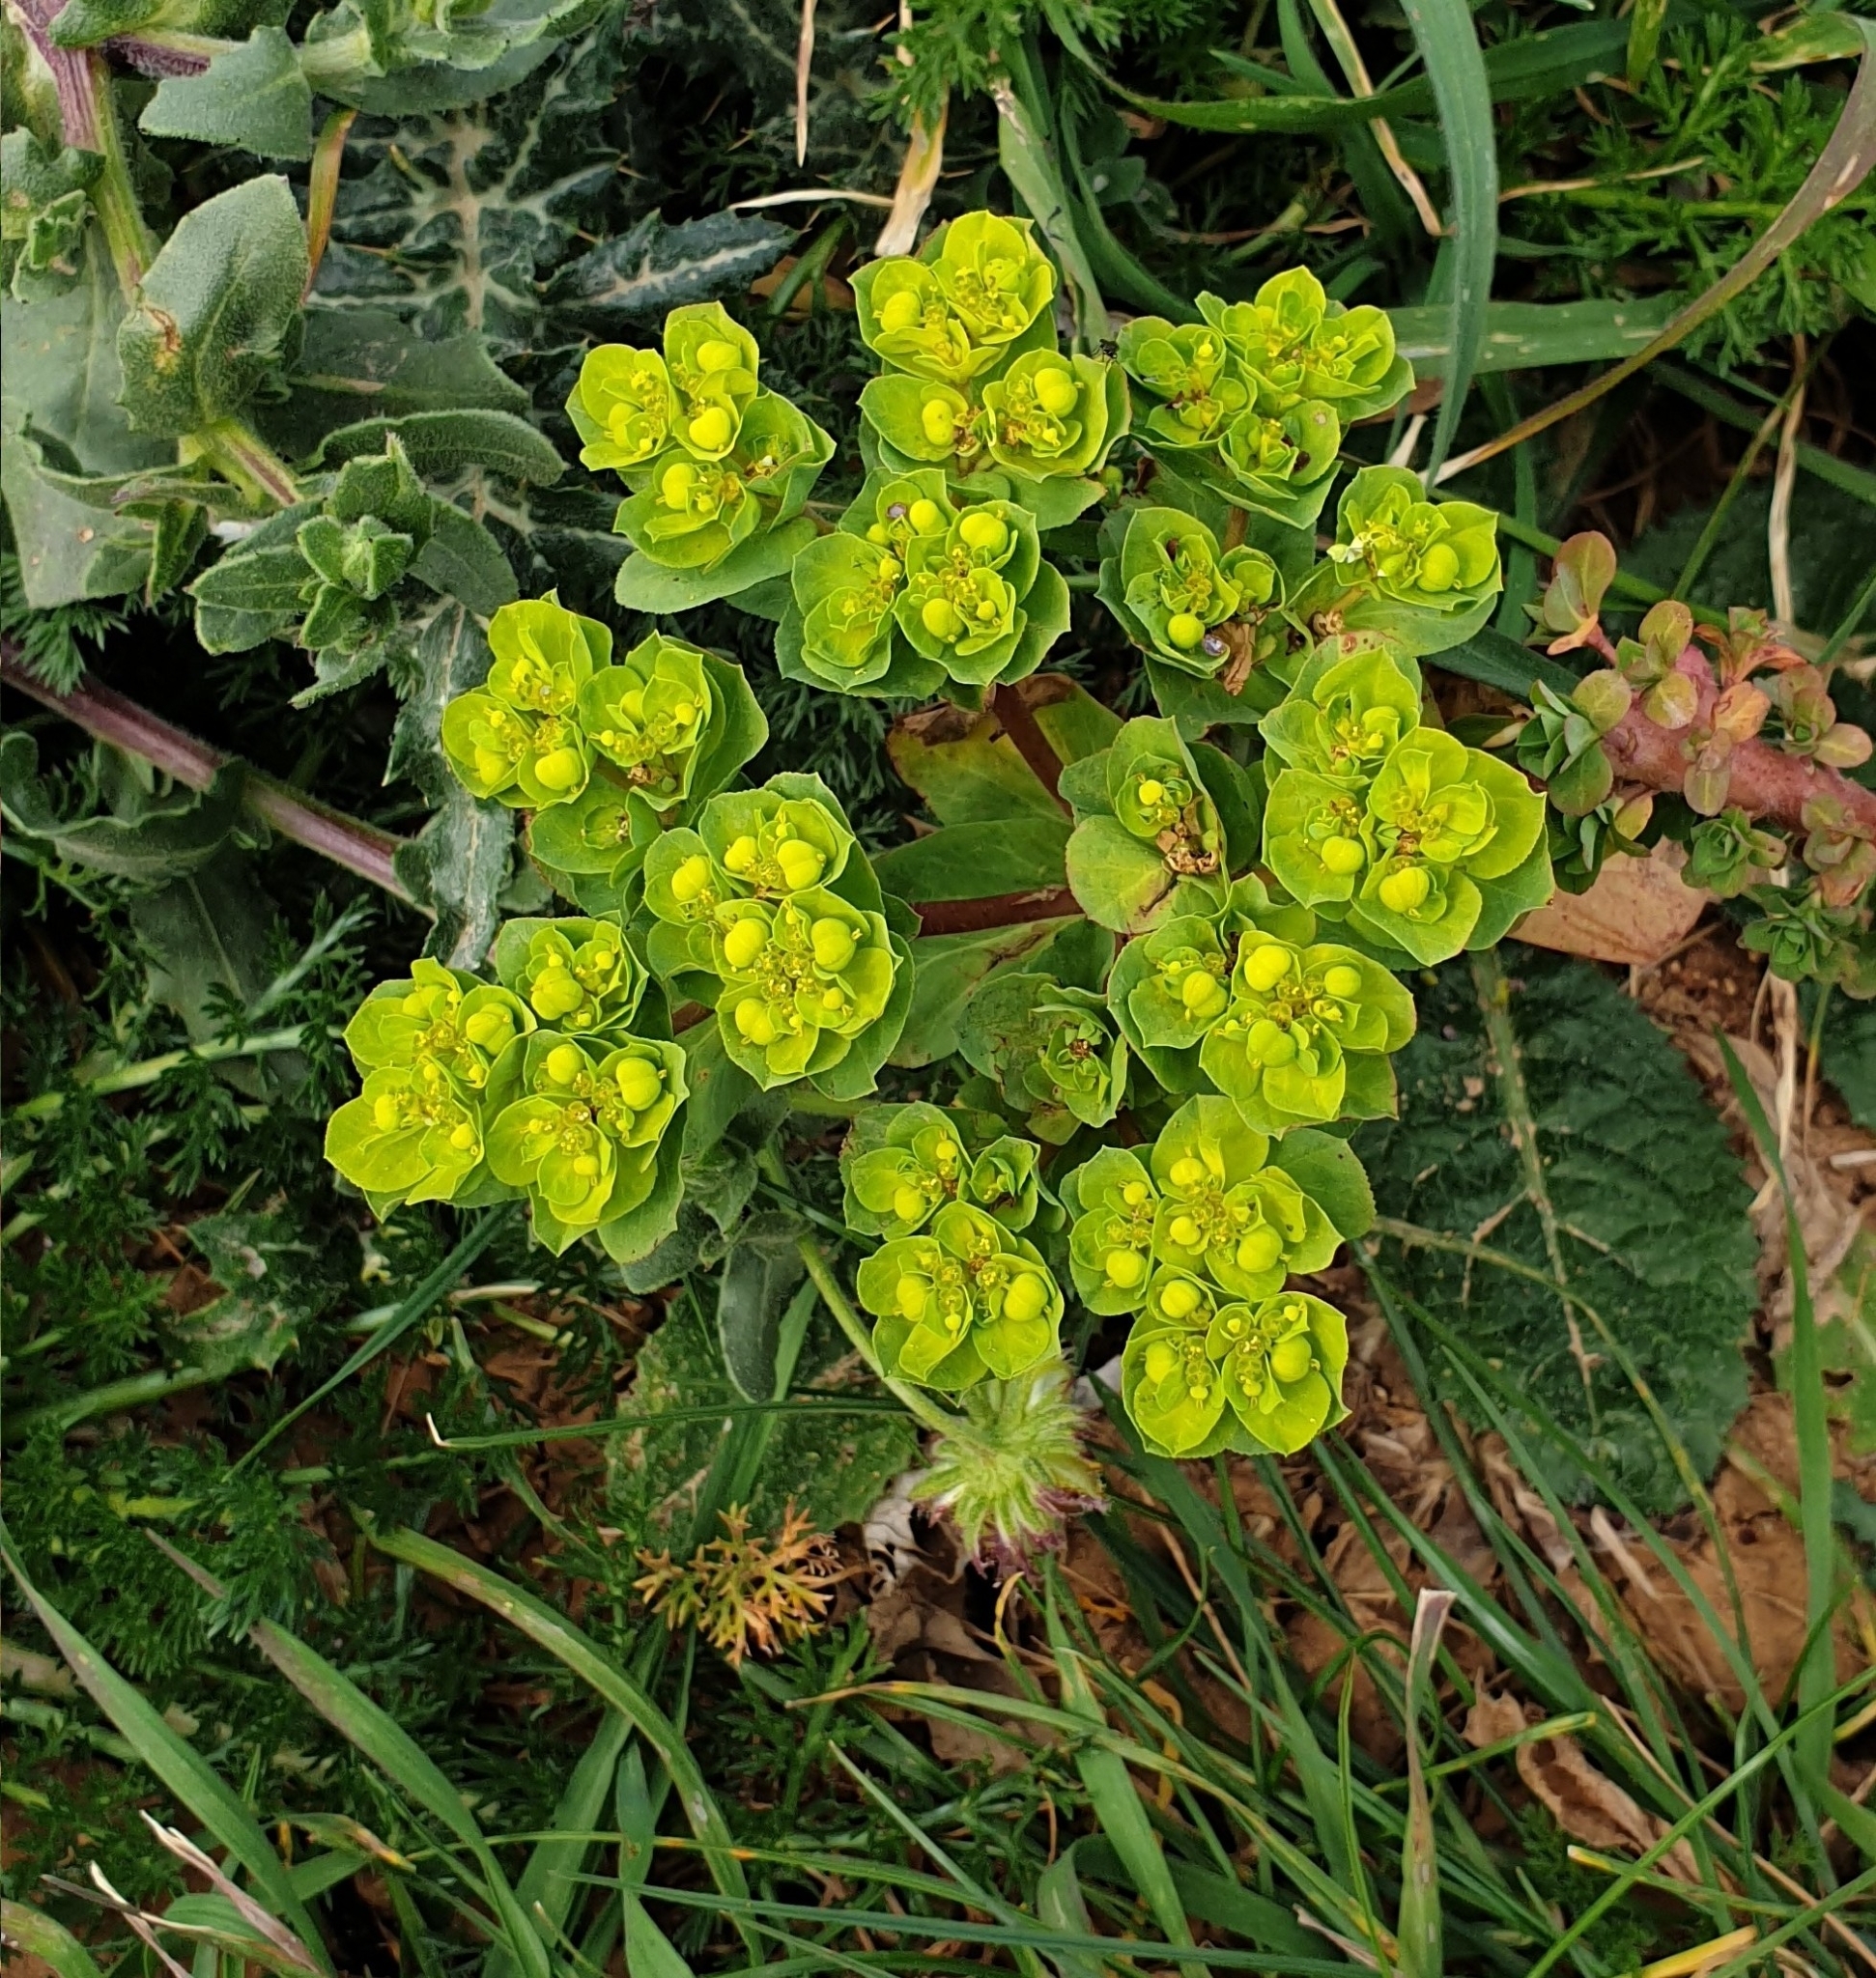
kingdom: Plantae
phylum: Tracheophyta
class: Magnoliopsida
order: Malpighiales
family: Euphorbiaceae
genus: Euphorbia
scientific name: Euphorbia helioscopia
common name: Sun spurge
